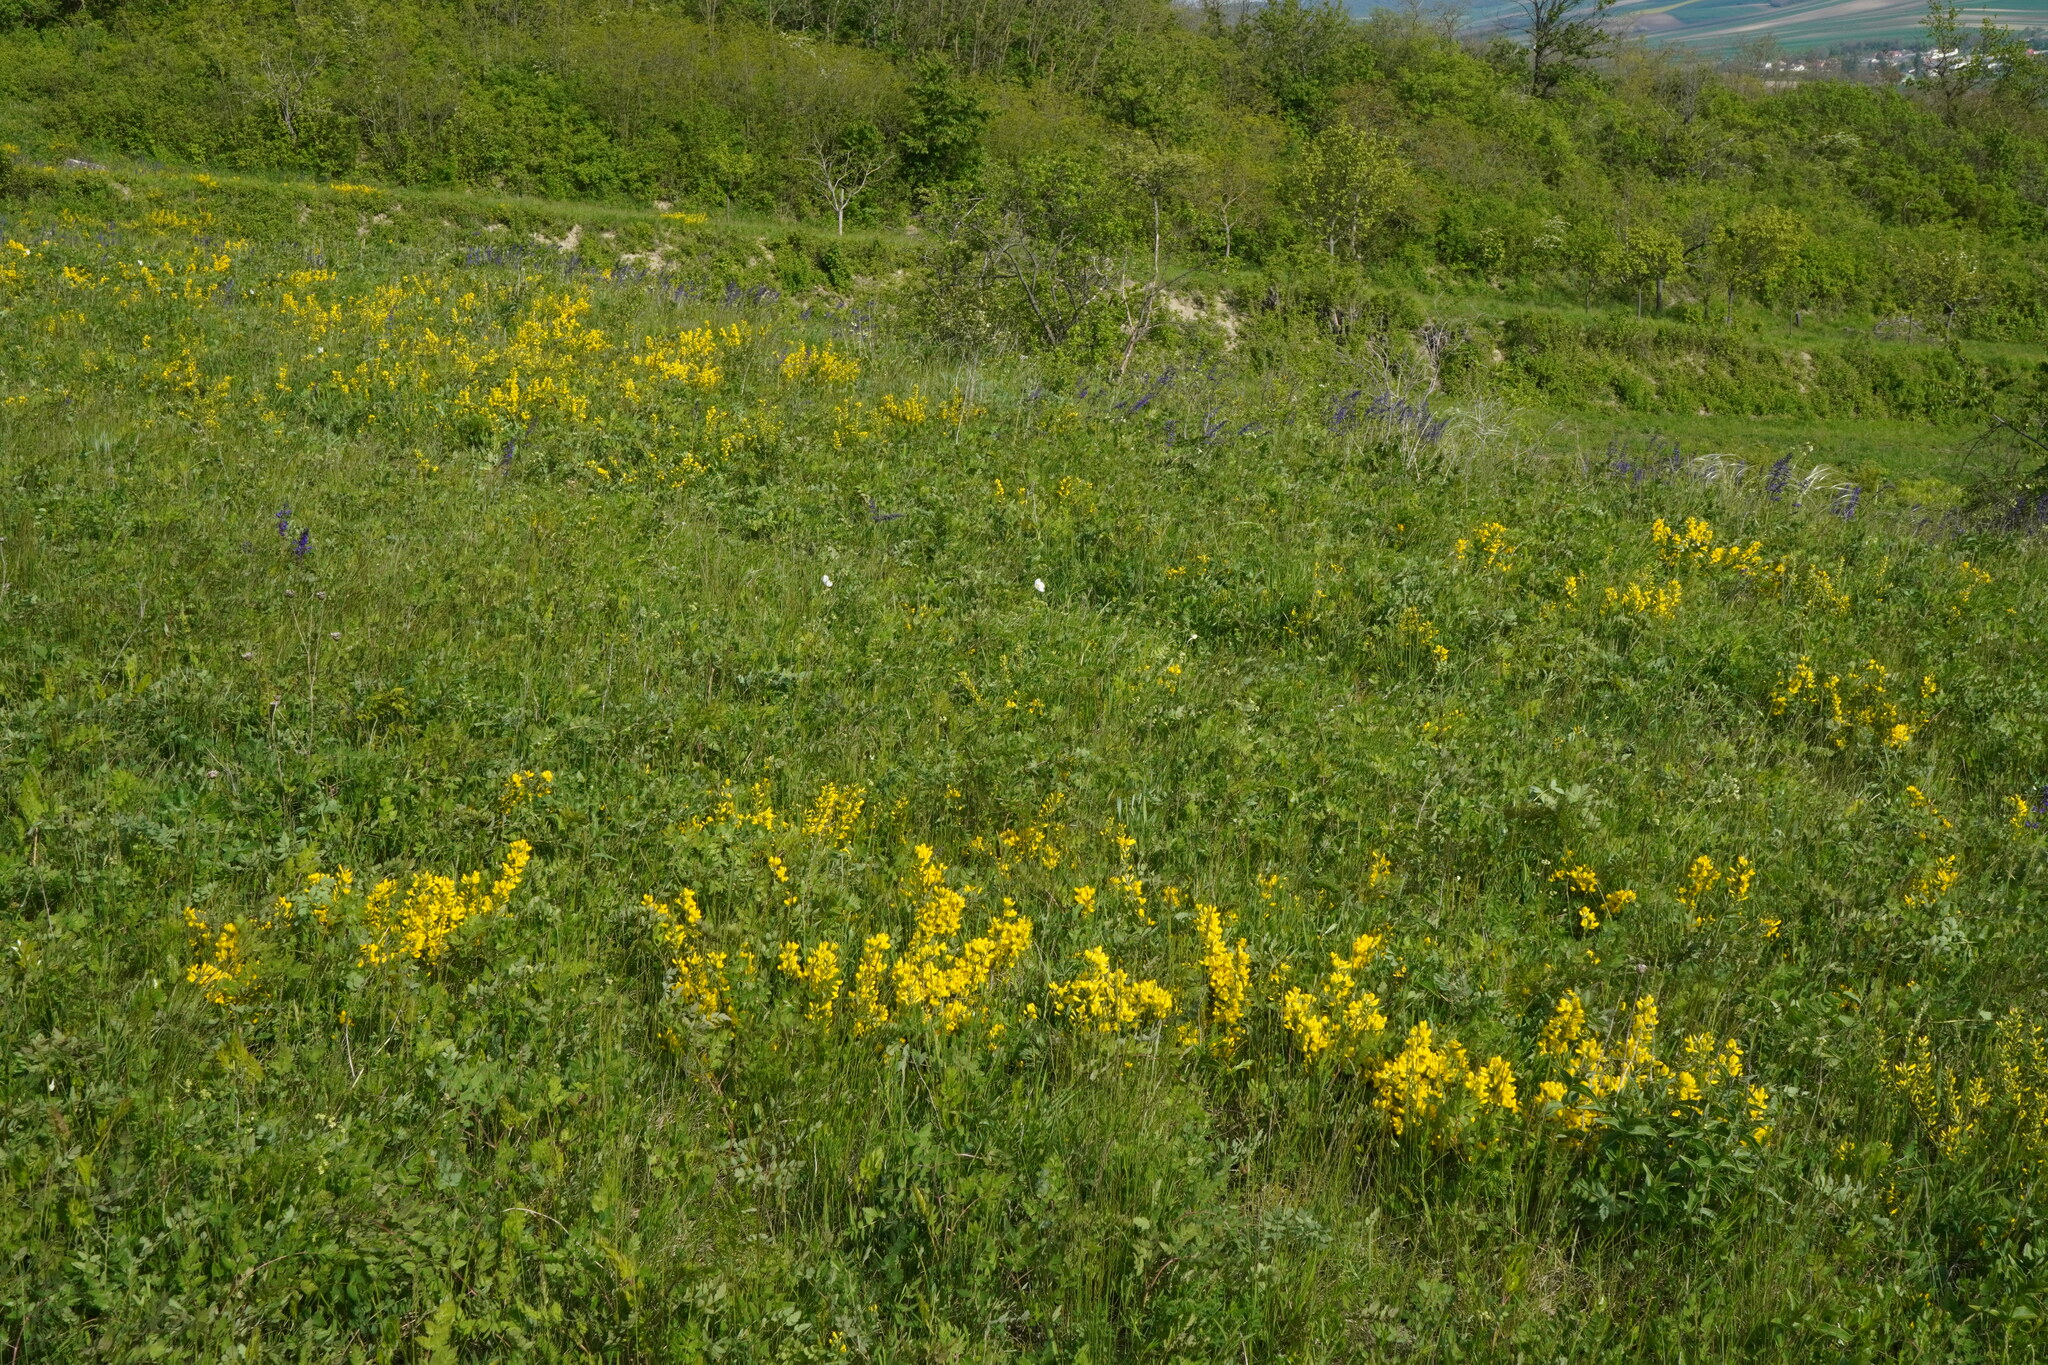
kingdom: Plantae
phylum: Tracheophyta
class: Magnoliopsida
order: Fabales
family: Fabaceae
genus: Cytisus
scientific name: Cytisus procumbens
